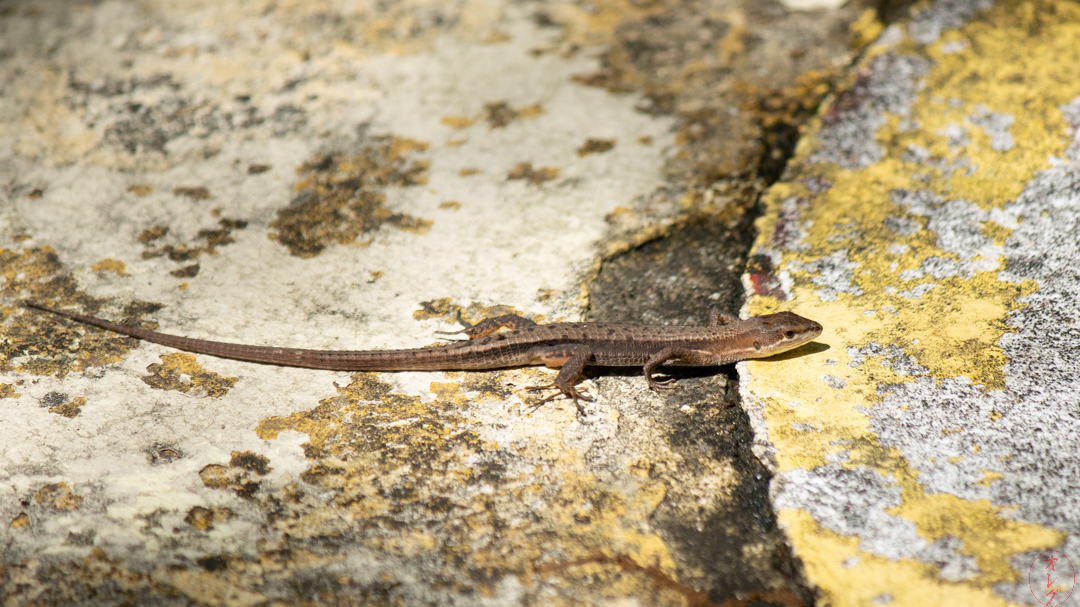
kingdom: Animalia
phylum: Chordata
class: Squamata
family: Lacertidae
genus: Takydromus
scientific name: Takydromus tachydromoides
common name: Japanese grass lizard
